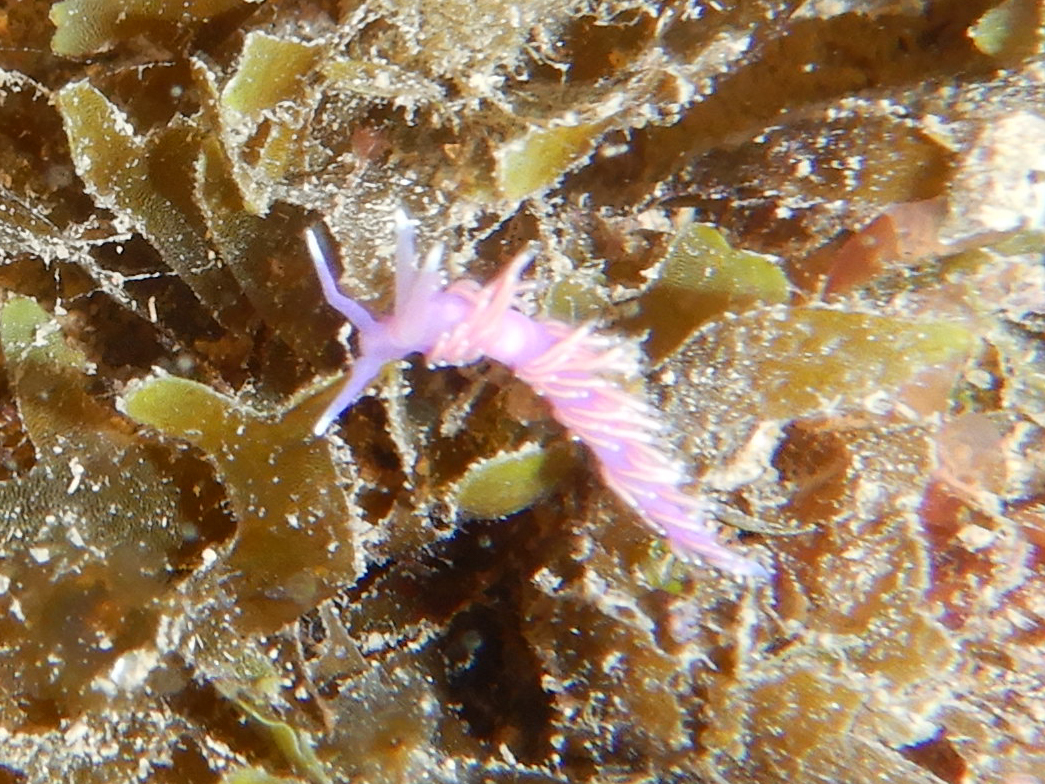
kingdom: Animalia
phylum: Mollusca
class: Gastropoda
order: Nudibranchia
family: Flabellinidae
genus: Edmundsella
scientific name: Edmundsella pedata
